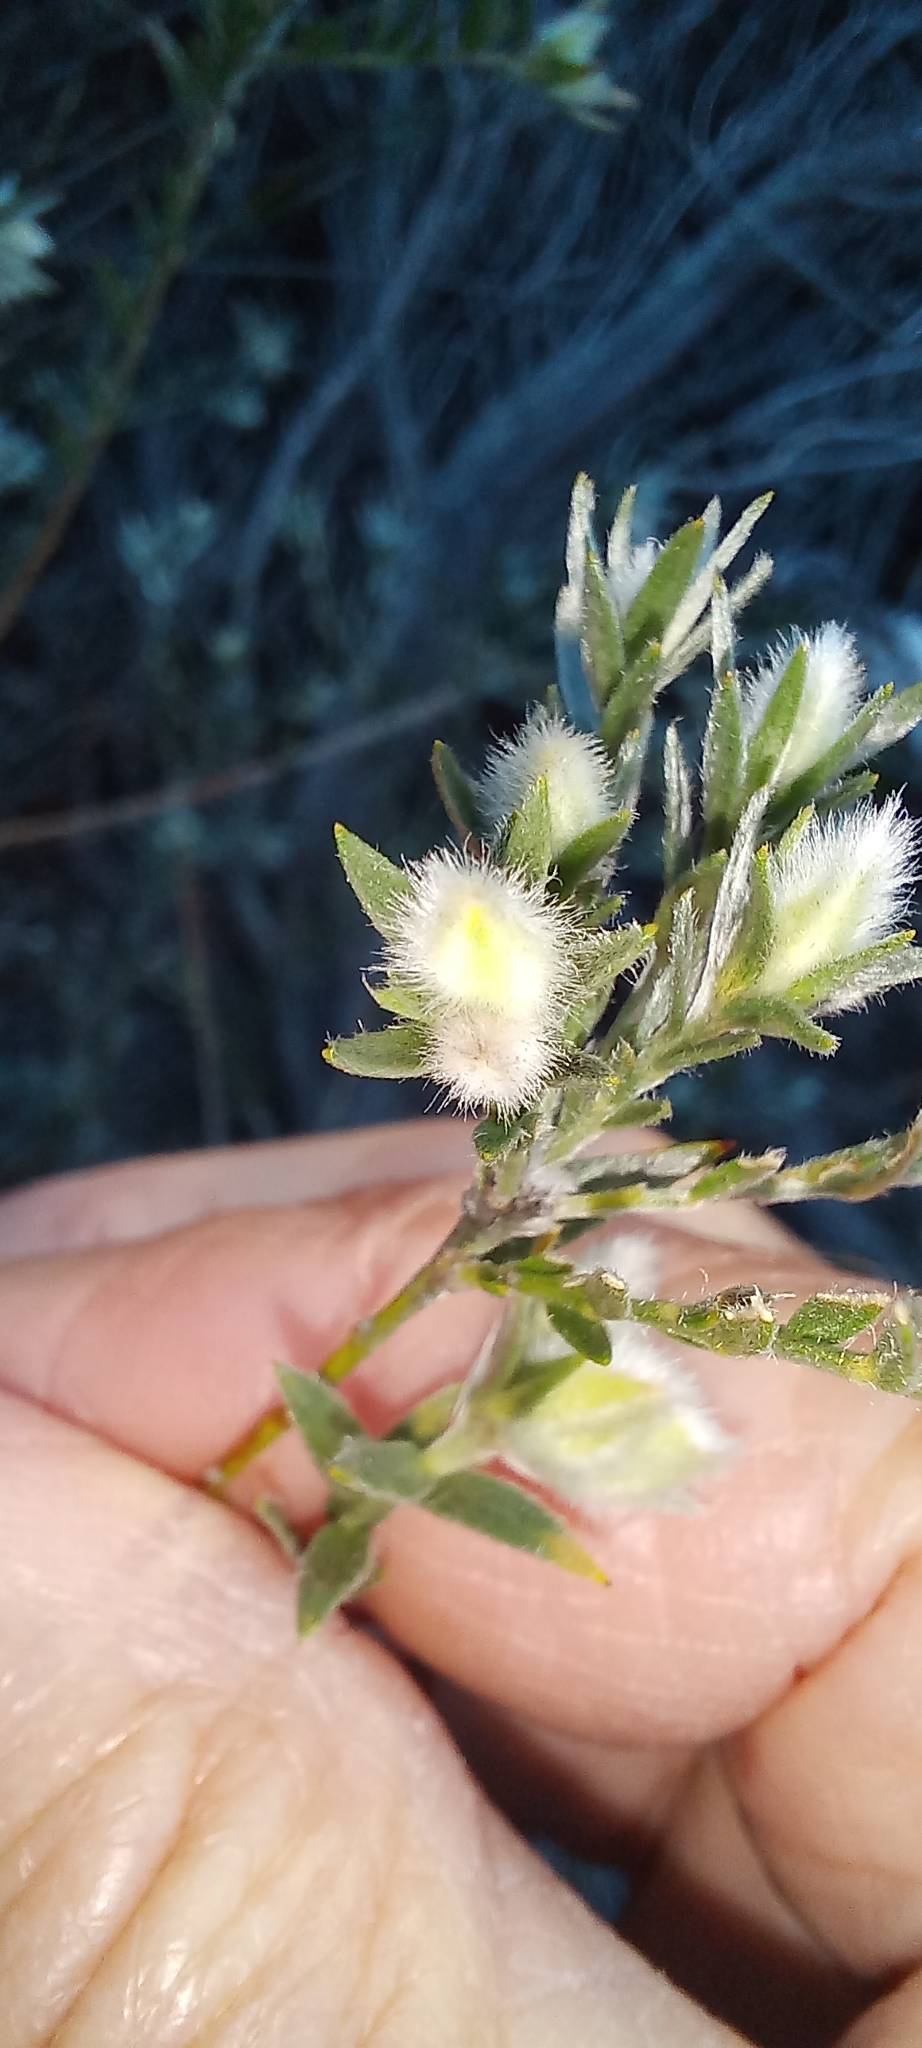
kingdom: Plantae
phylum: Tracheophyta
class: Magnoliopsida
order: Fabales
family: Fabaceae
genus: Amphithalea
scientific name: Amphithalea tomentosa
